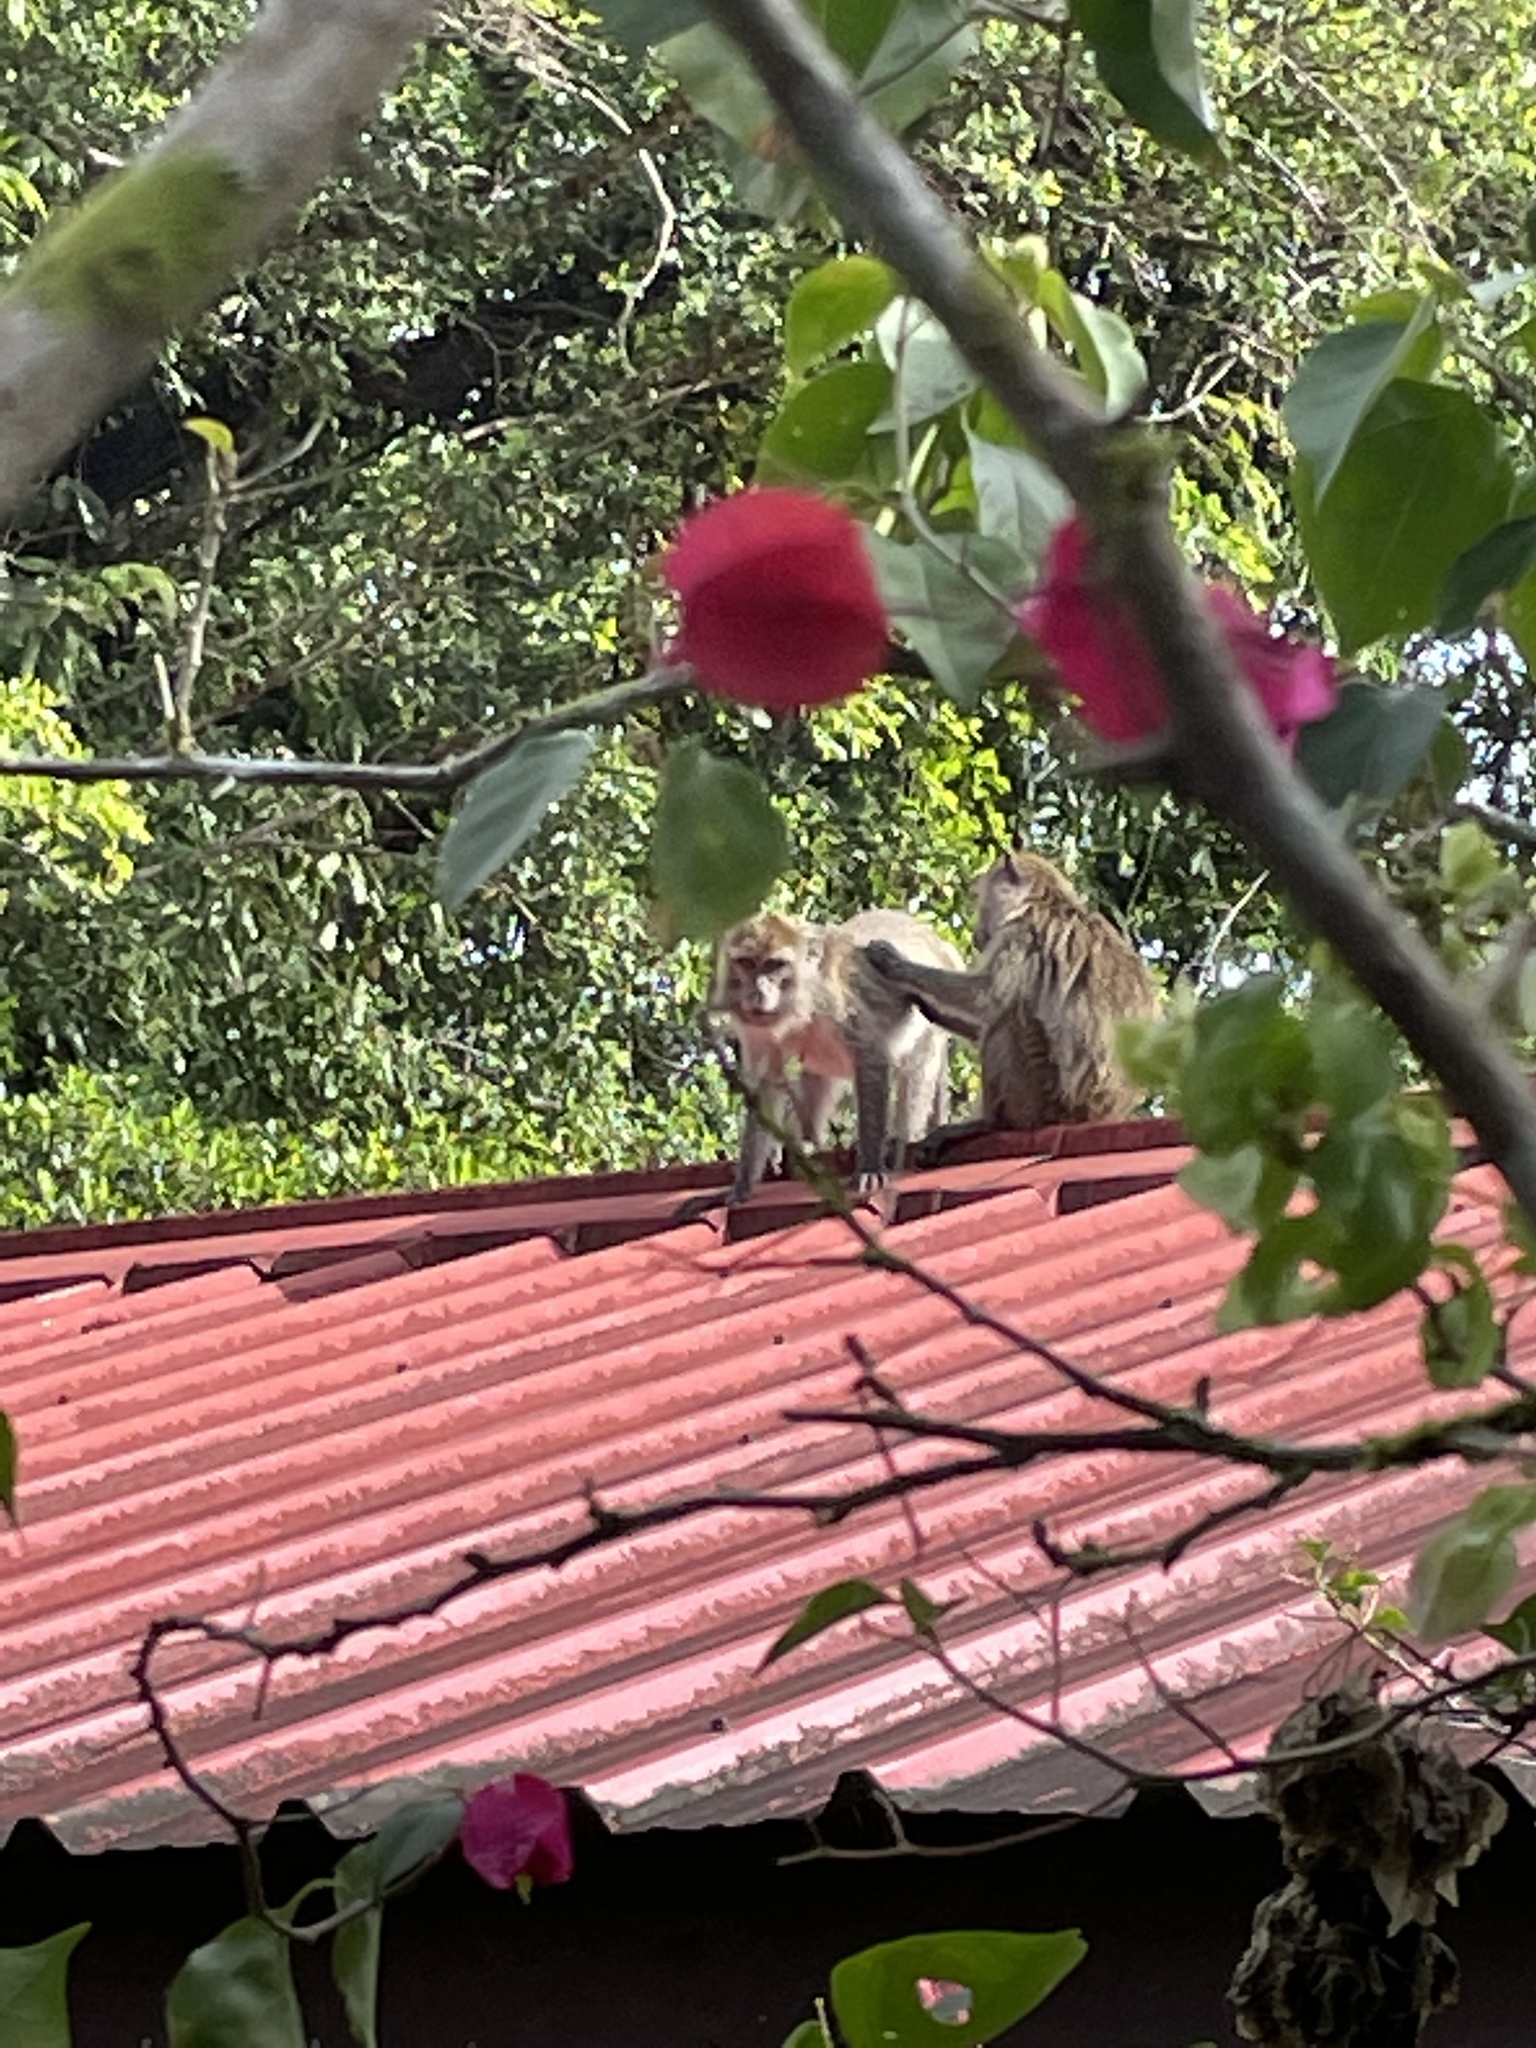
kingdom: Animalia
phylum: Chordata
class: Mammalia
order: Primates
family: Cercopithecidae
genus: Macaca
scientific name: Macaca fascicularis
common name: Crab-eating macaque
